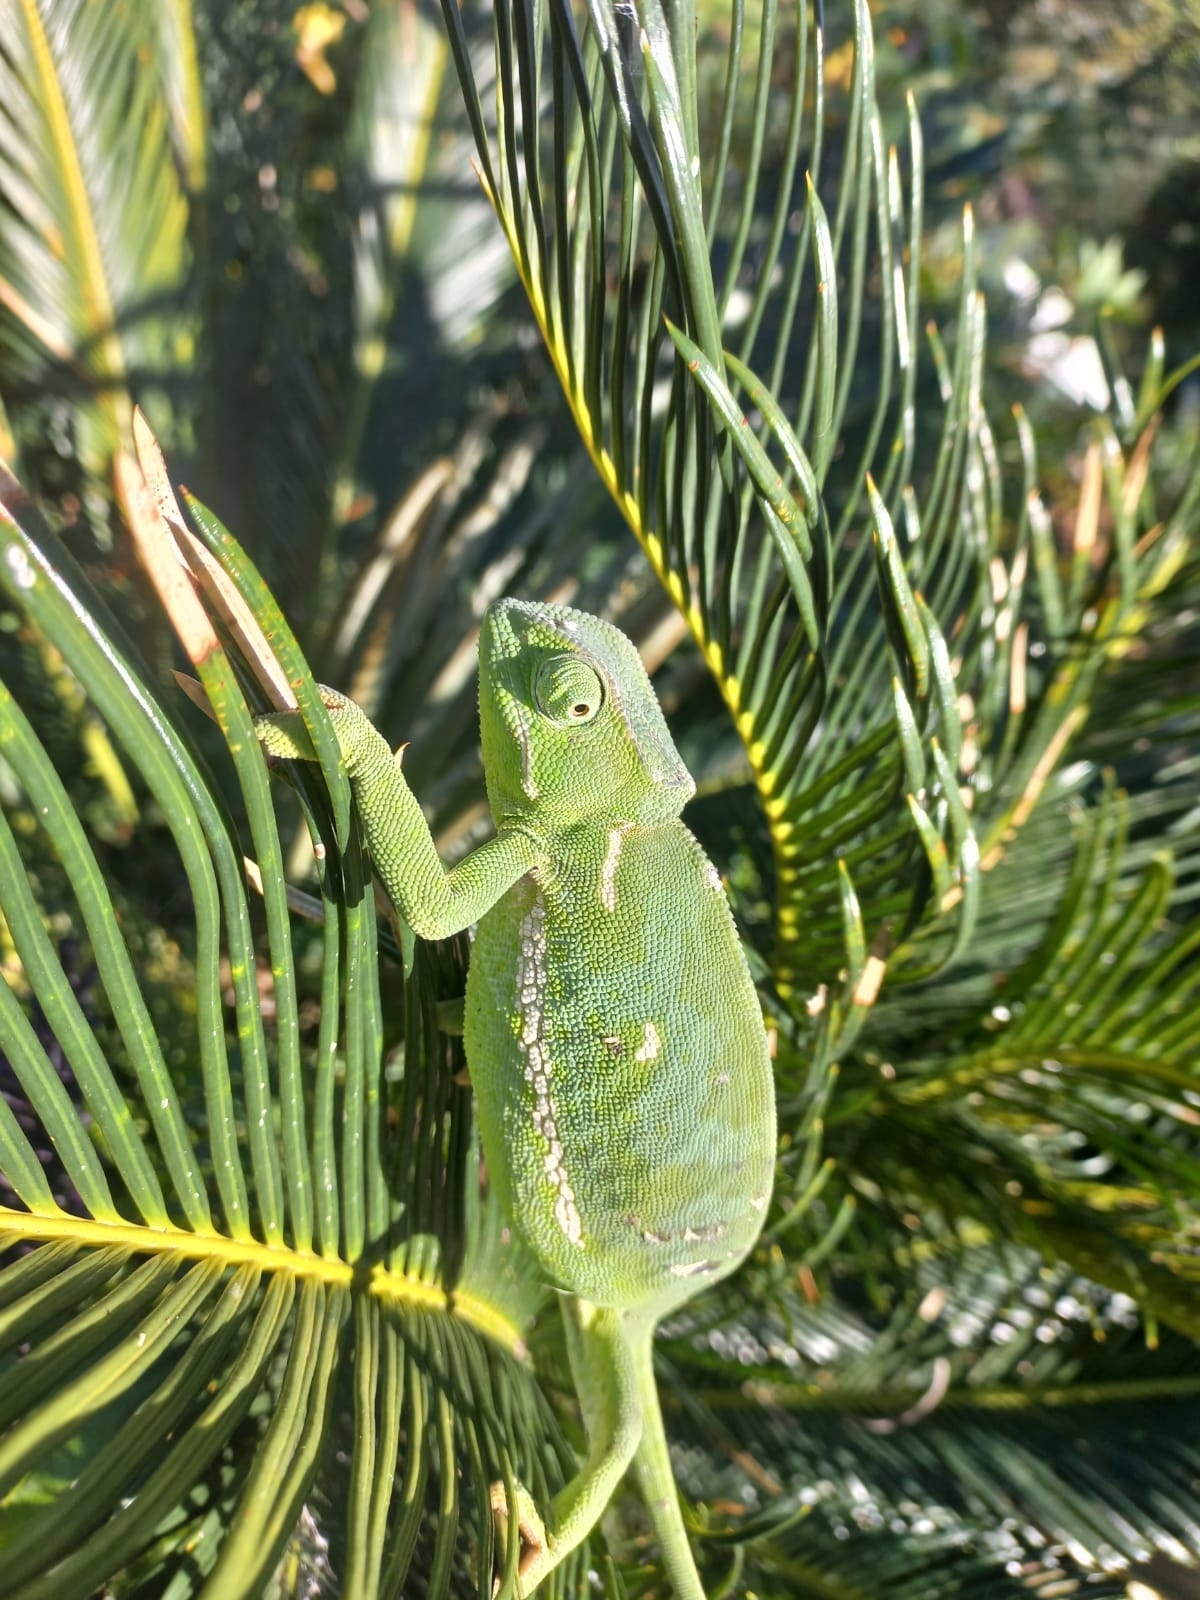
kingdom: Animalia
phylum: Chordata
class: Squamata
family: Chamaeleonidae
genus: Chamaeleo
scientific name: Chamaeleo dilepis
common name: Flapneck chameleon
